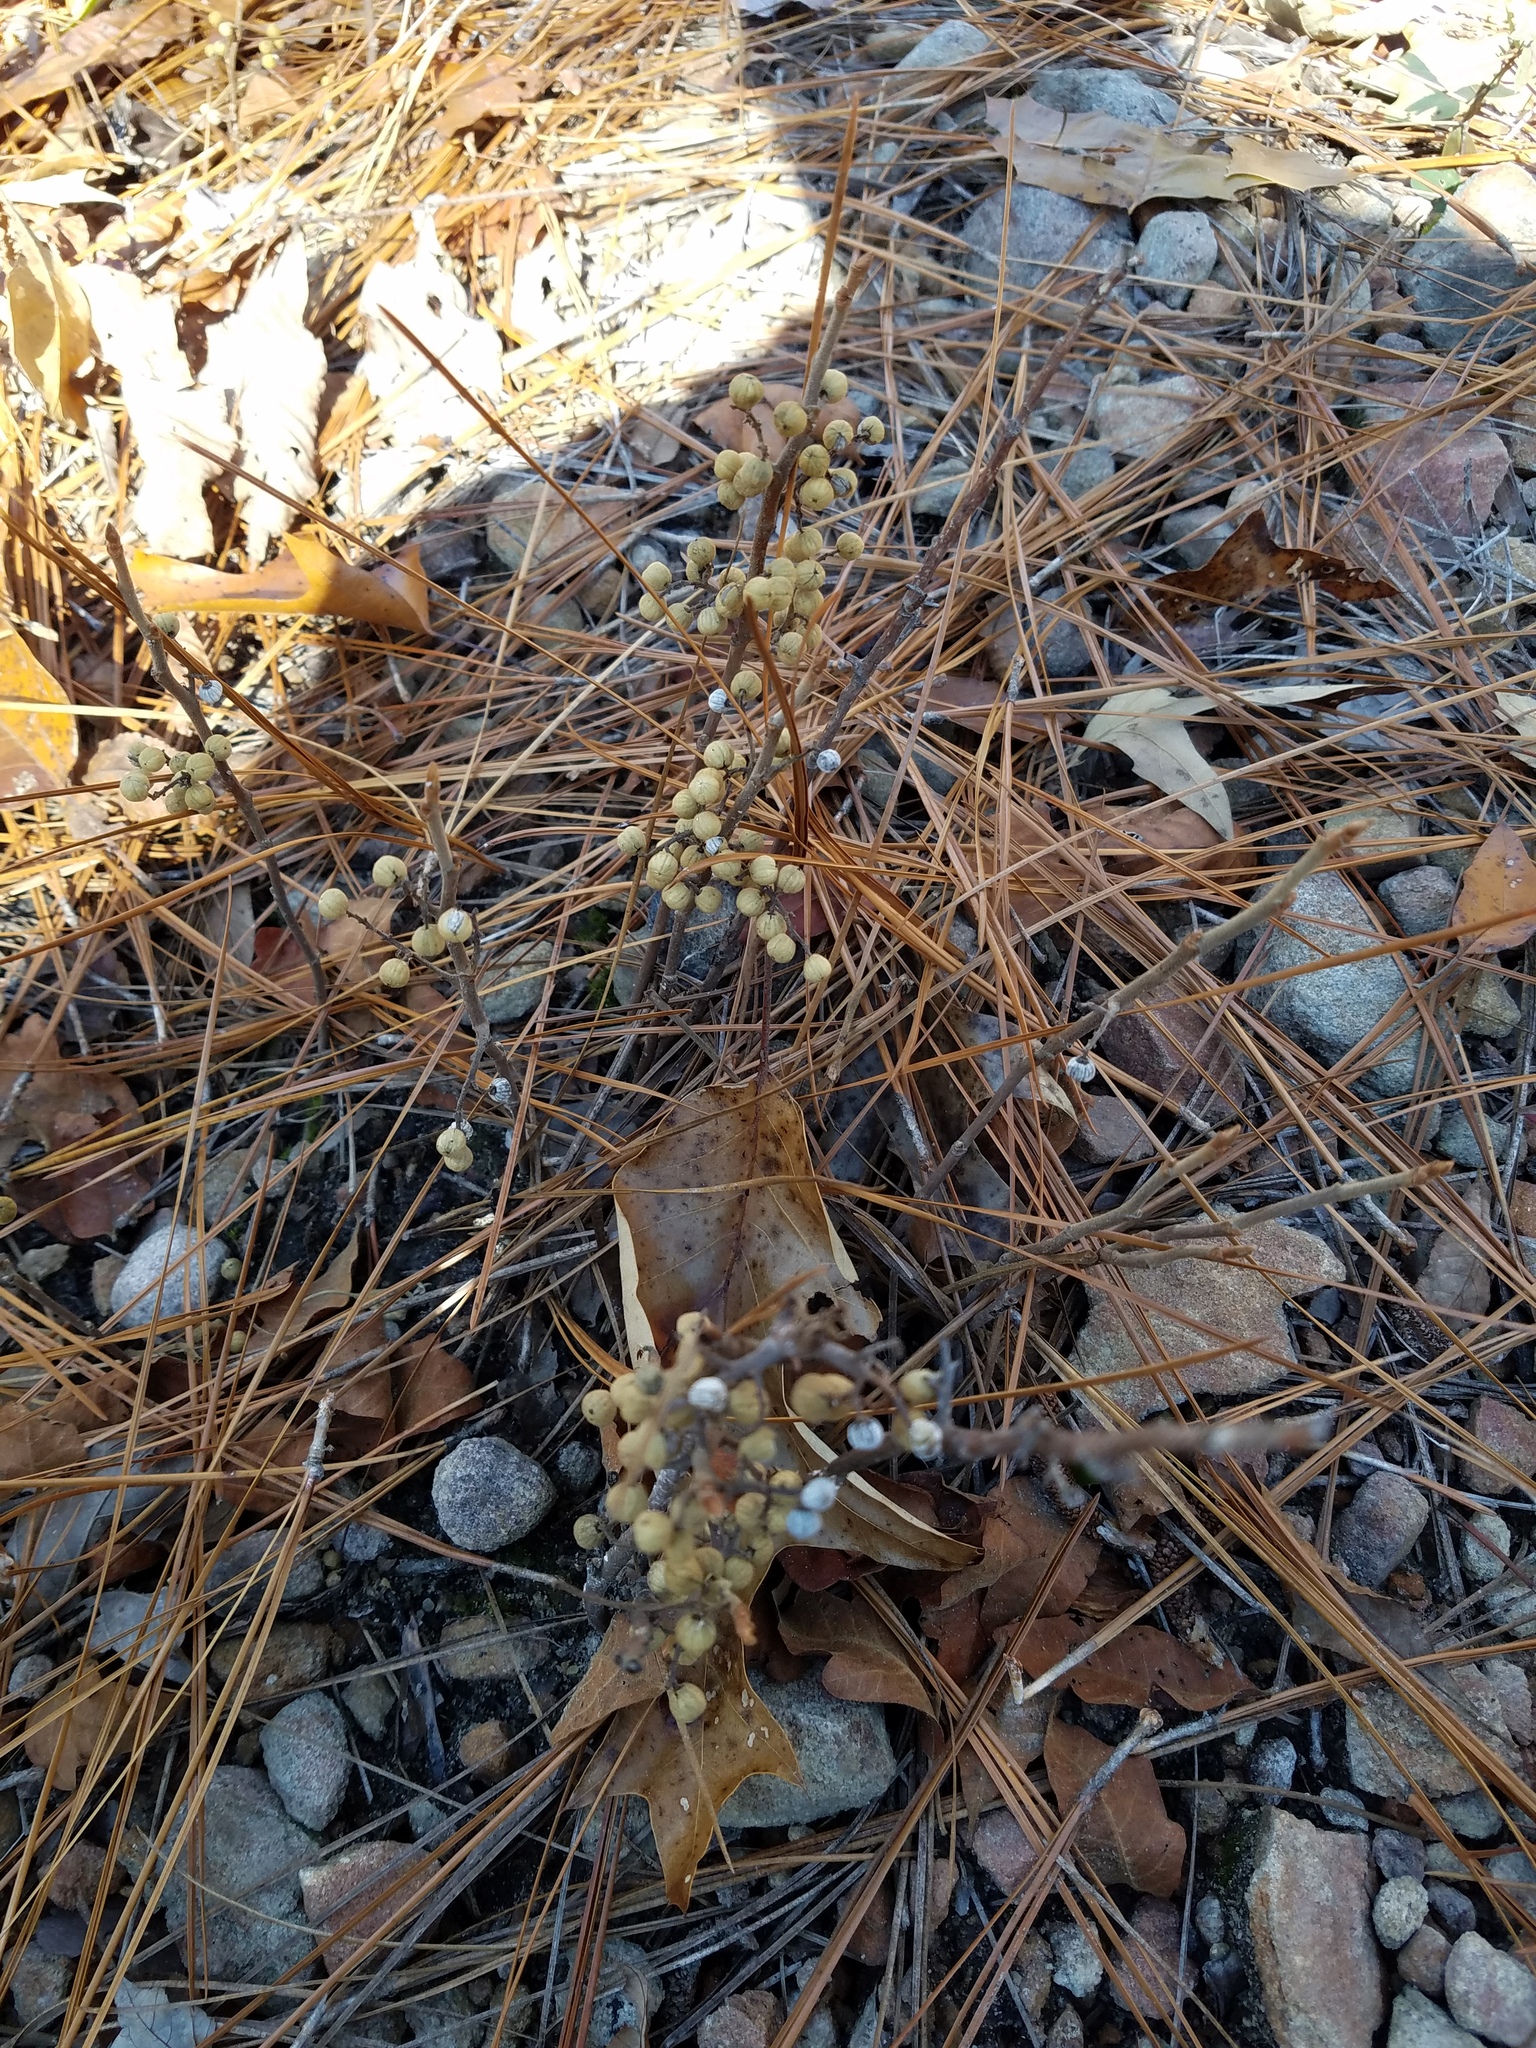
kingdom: Plantae
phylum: Tracheophyta
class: Magnoliopsida
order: Sapindales
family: Anacardiaceae
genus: Toxicodendron
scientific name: Toxicodendron pubescens
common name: Eastern poison-oak
